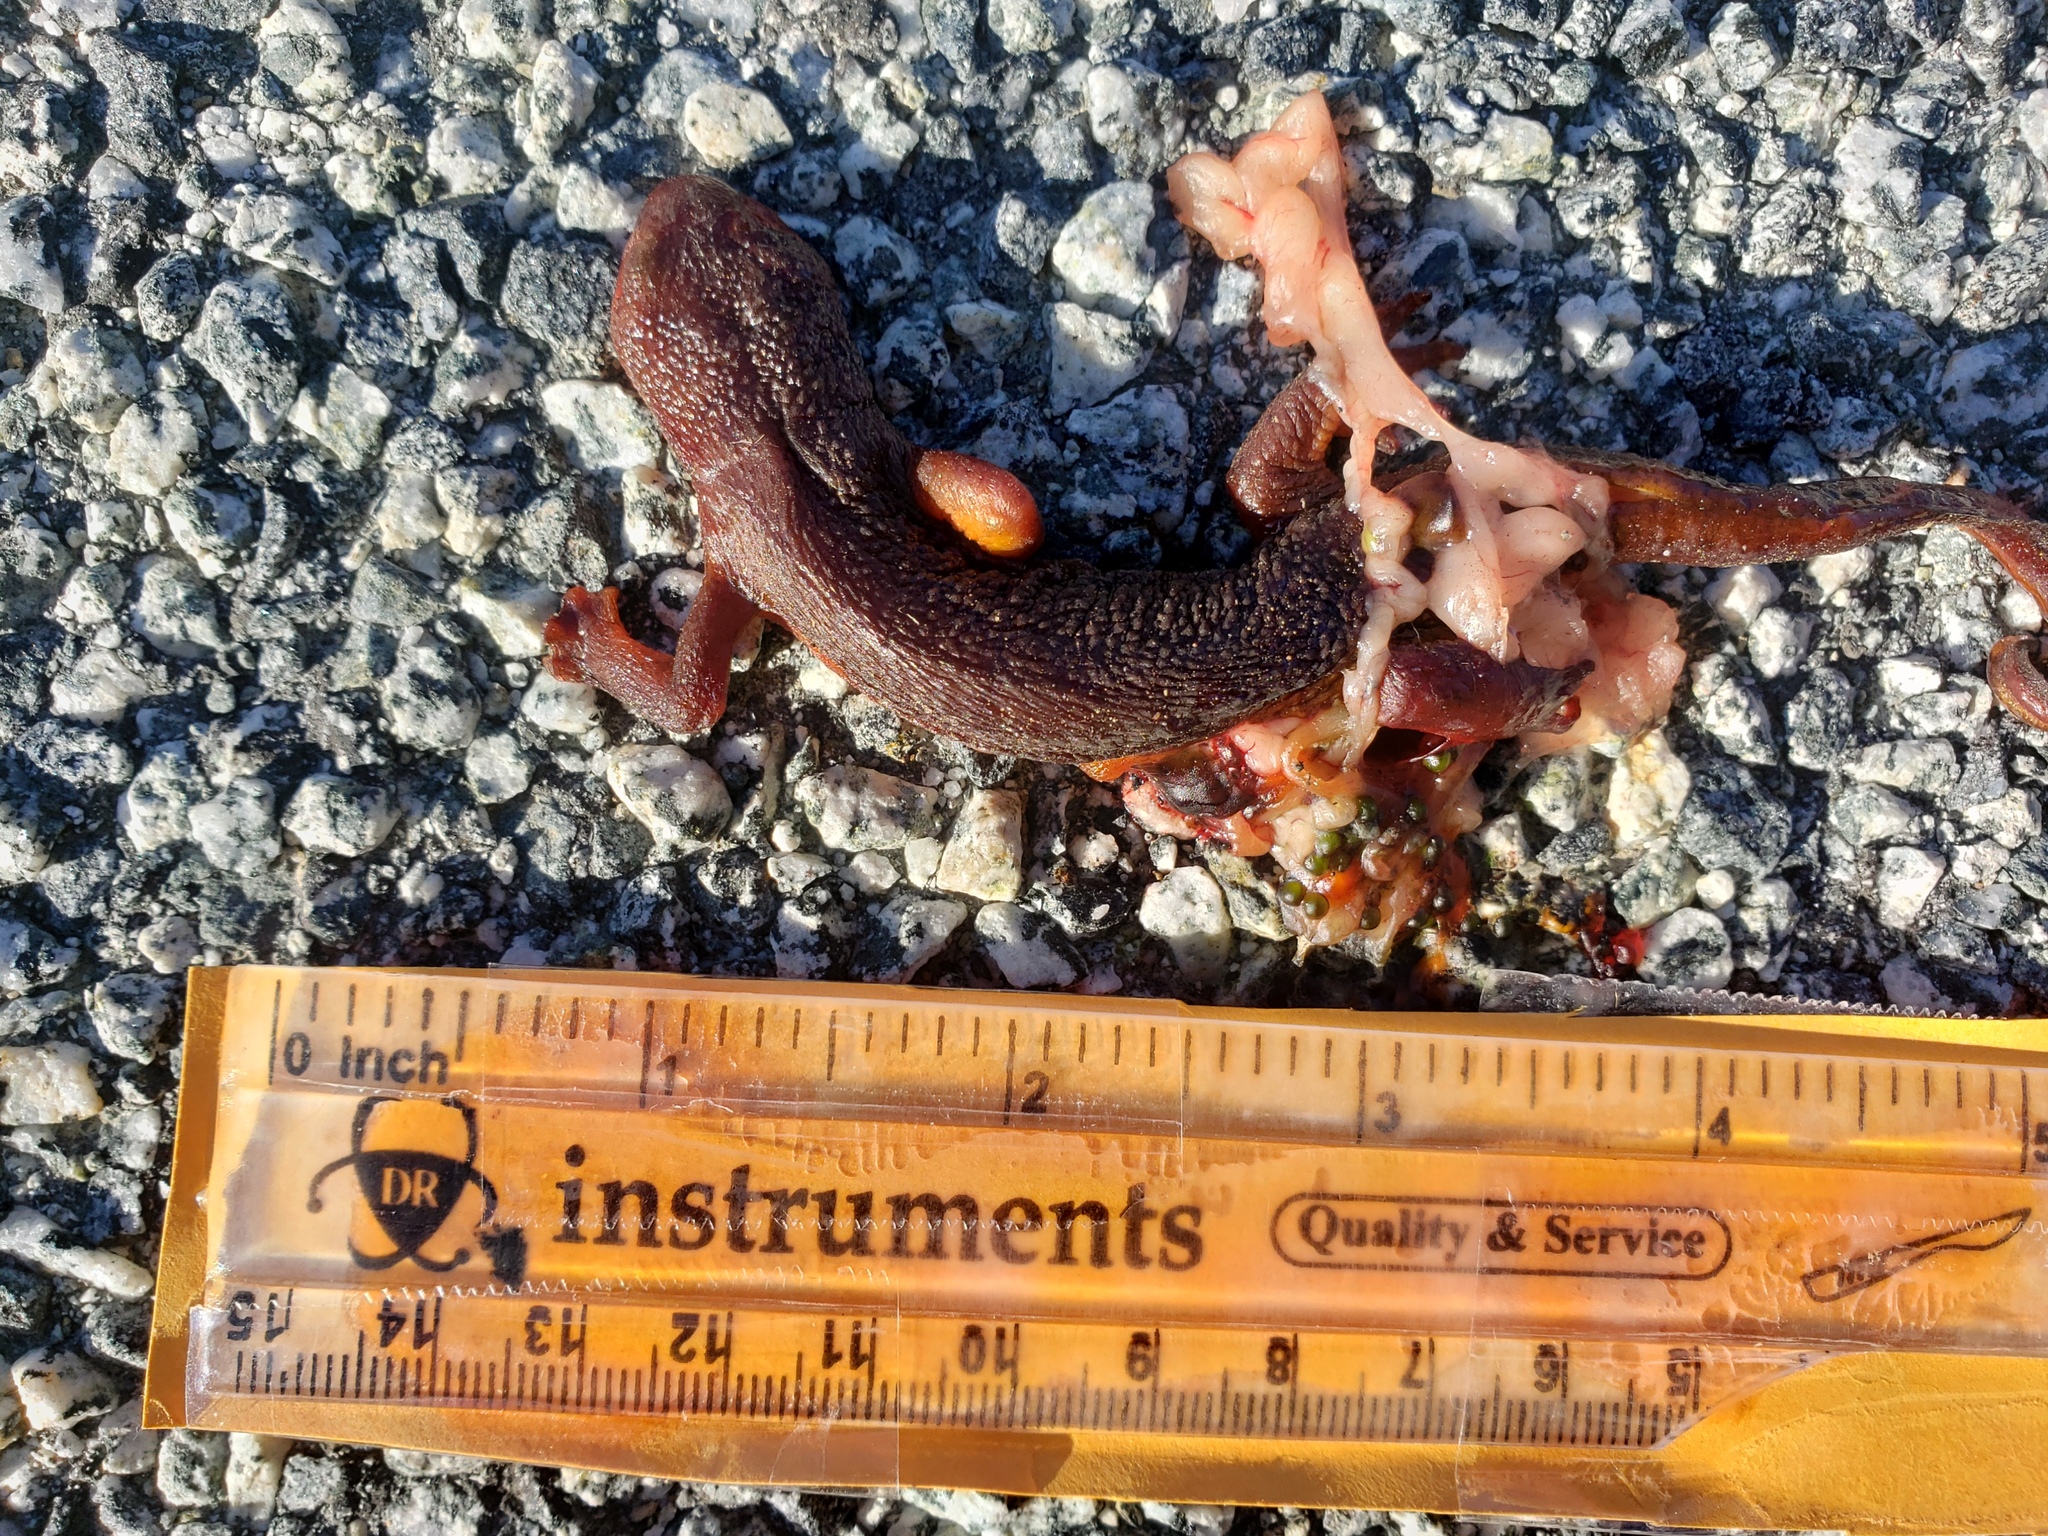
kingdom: Animalia
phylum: Chordata
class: Amphibia
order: Caudata
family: Salamandridae
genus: Taricha
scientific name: Taricha
